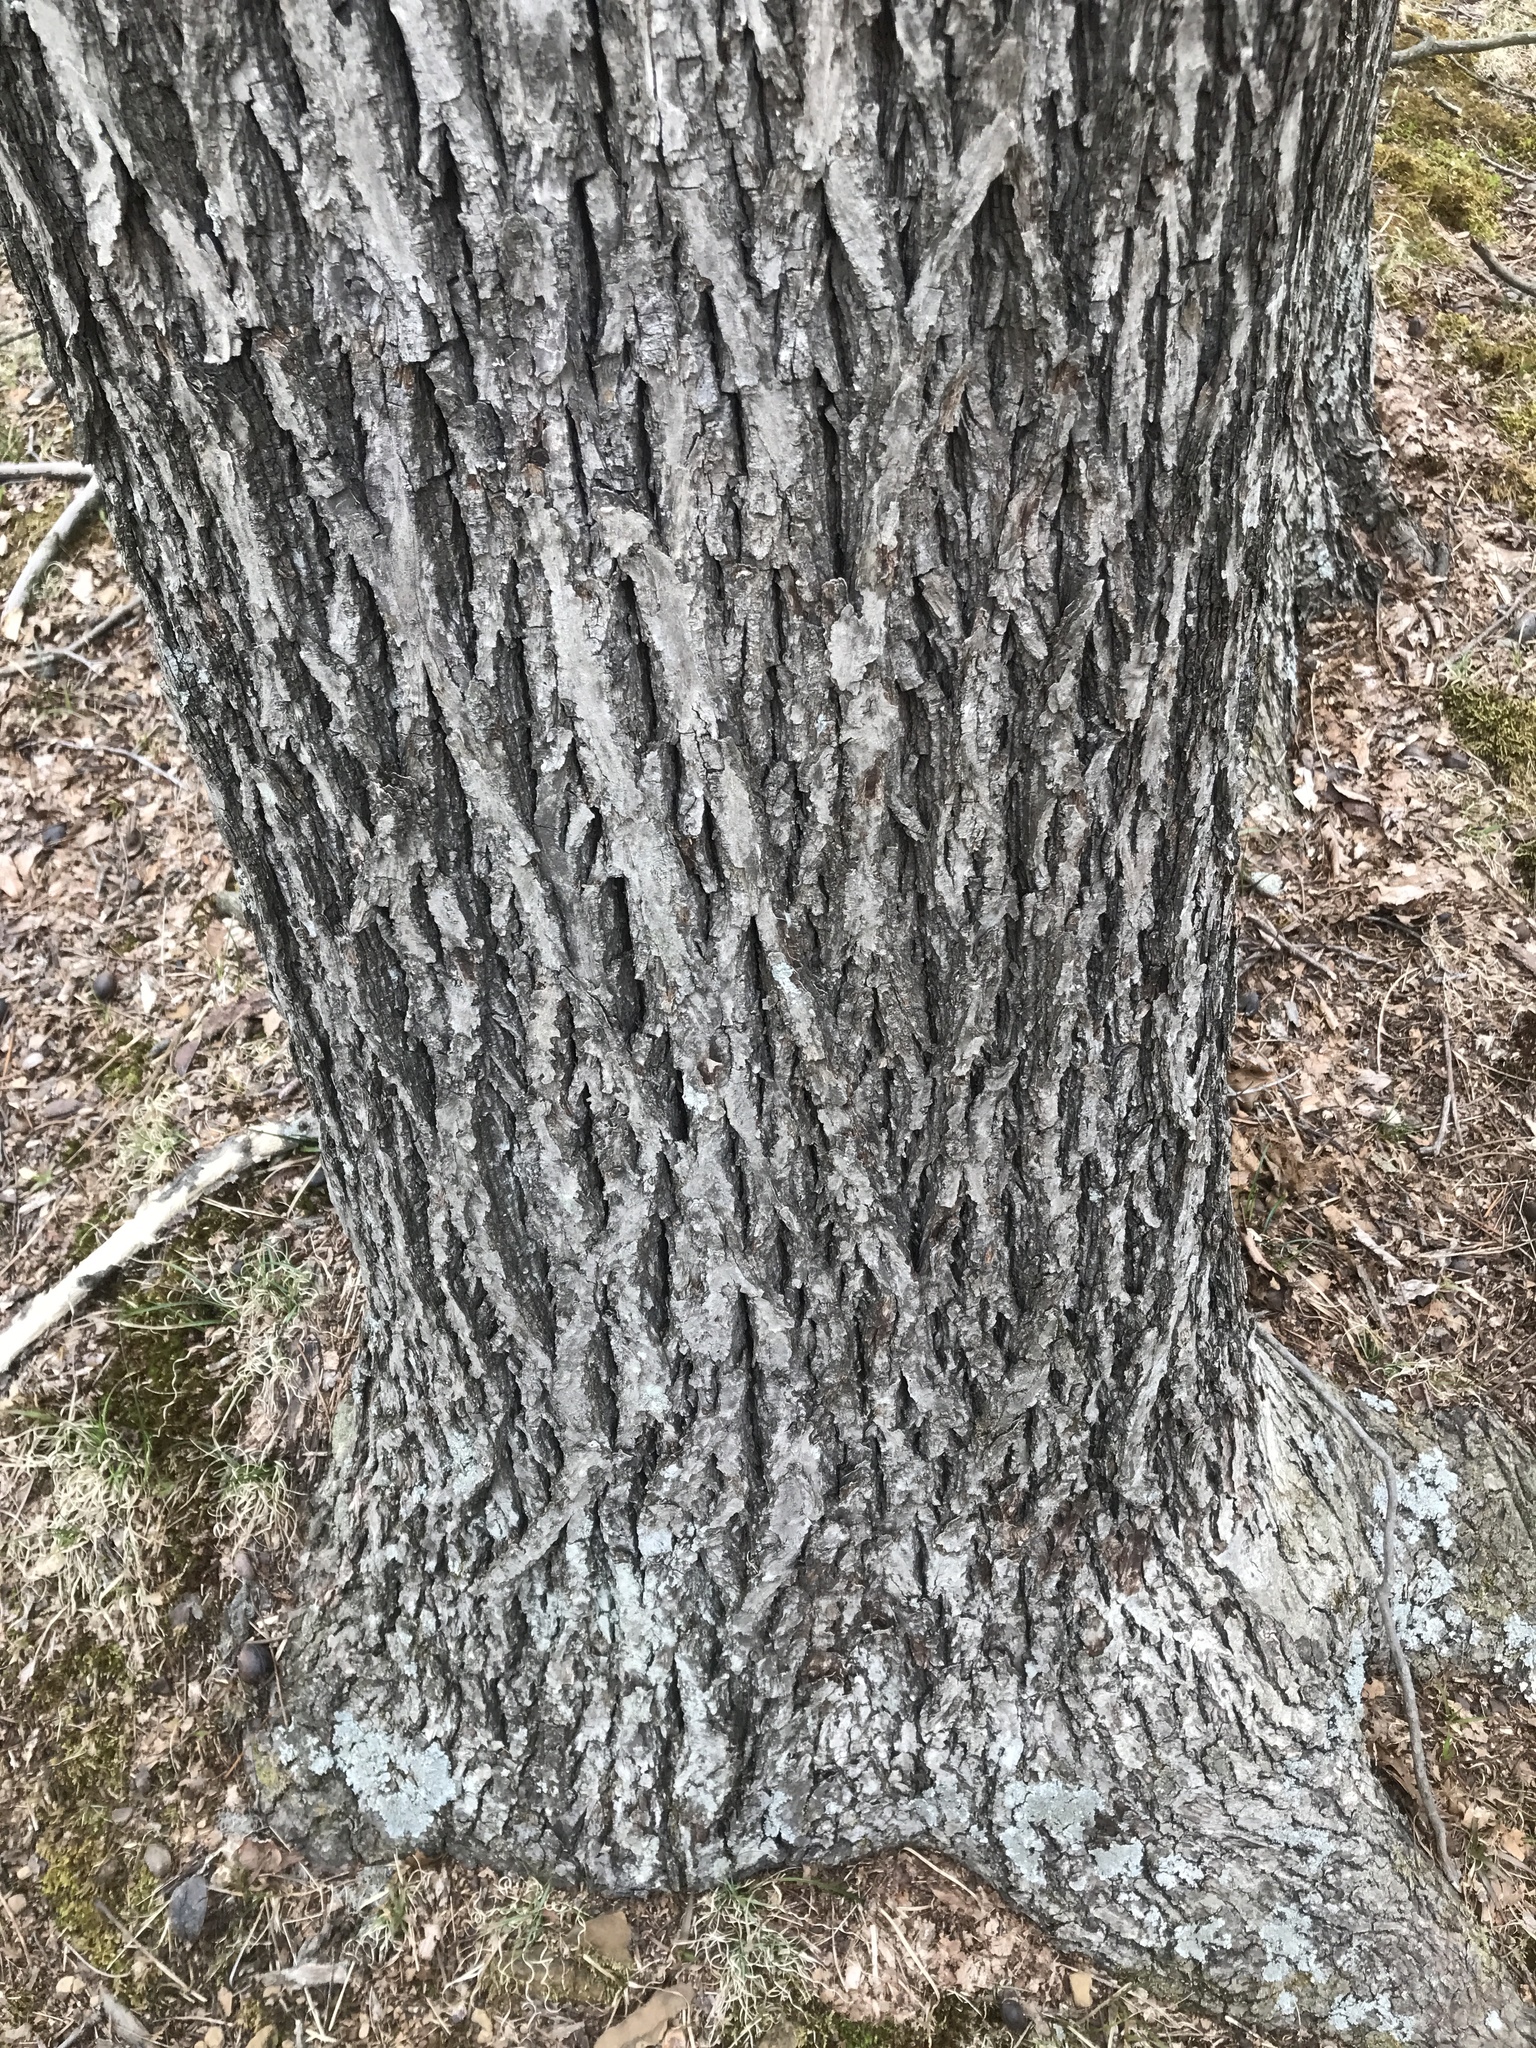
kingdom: Plantae
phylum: Tracheophyta
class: Magnoliopsida
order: Fagales
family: Juglandaceae
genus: Carya
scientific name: Carya cordiformis
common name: Bitternut hickory
